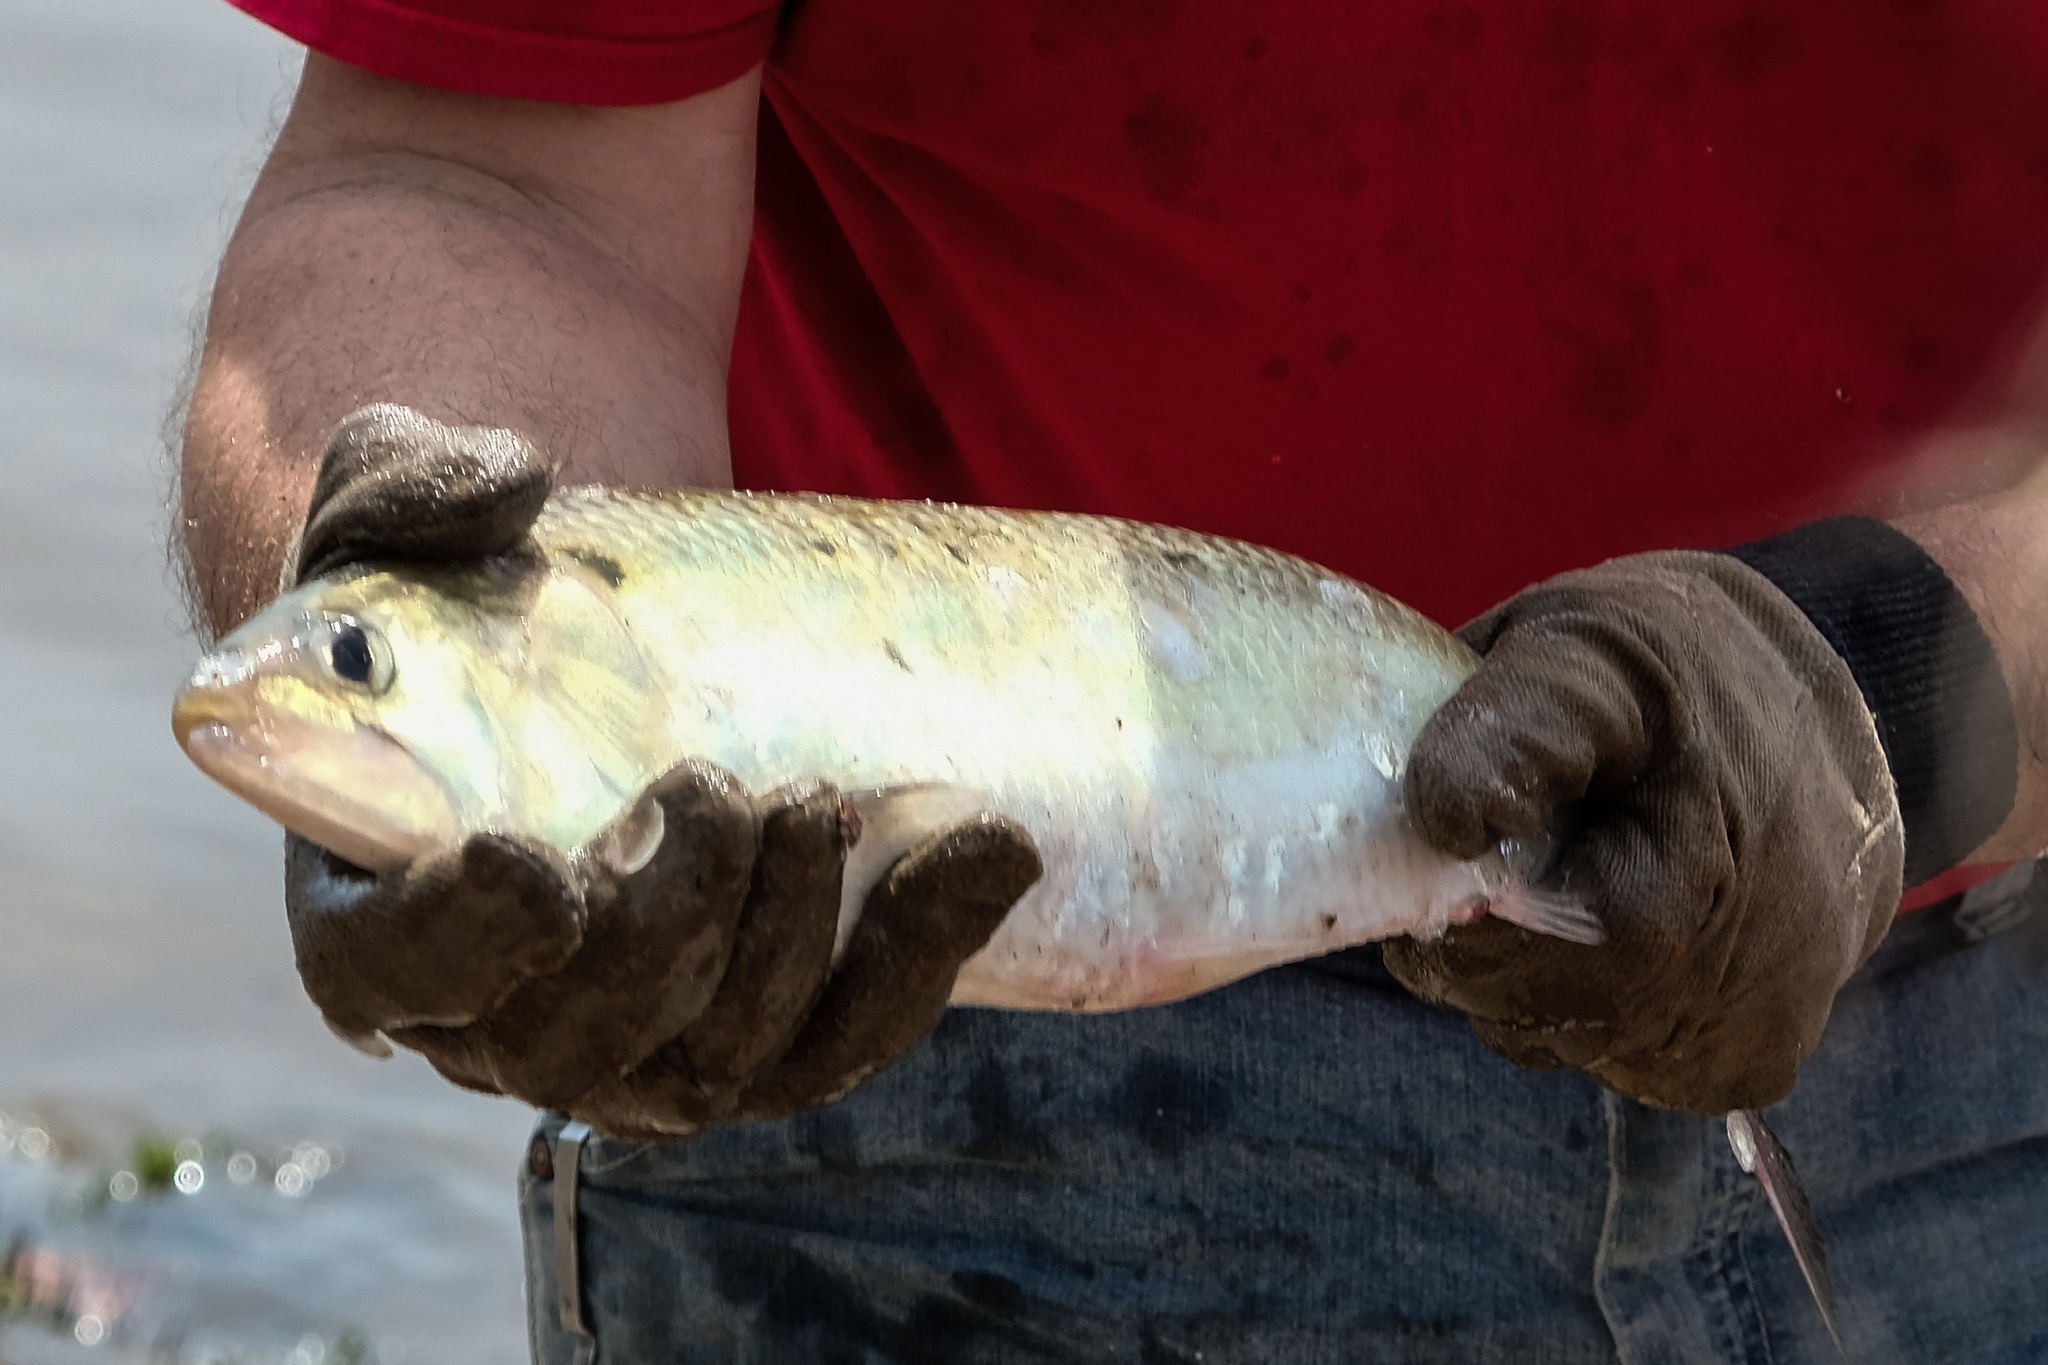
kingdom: Animalia
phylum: Chordata
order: Clupeiformes
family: Clupeidae
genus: Alosa
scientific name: Alosa sapidissima
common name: American shad
